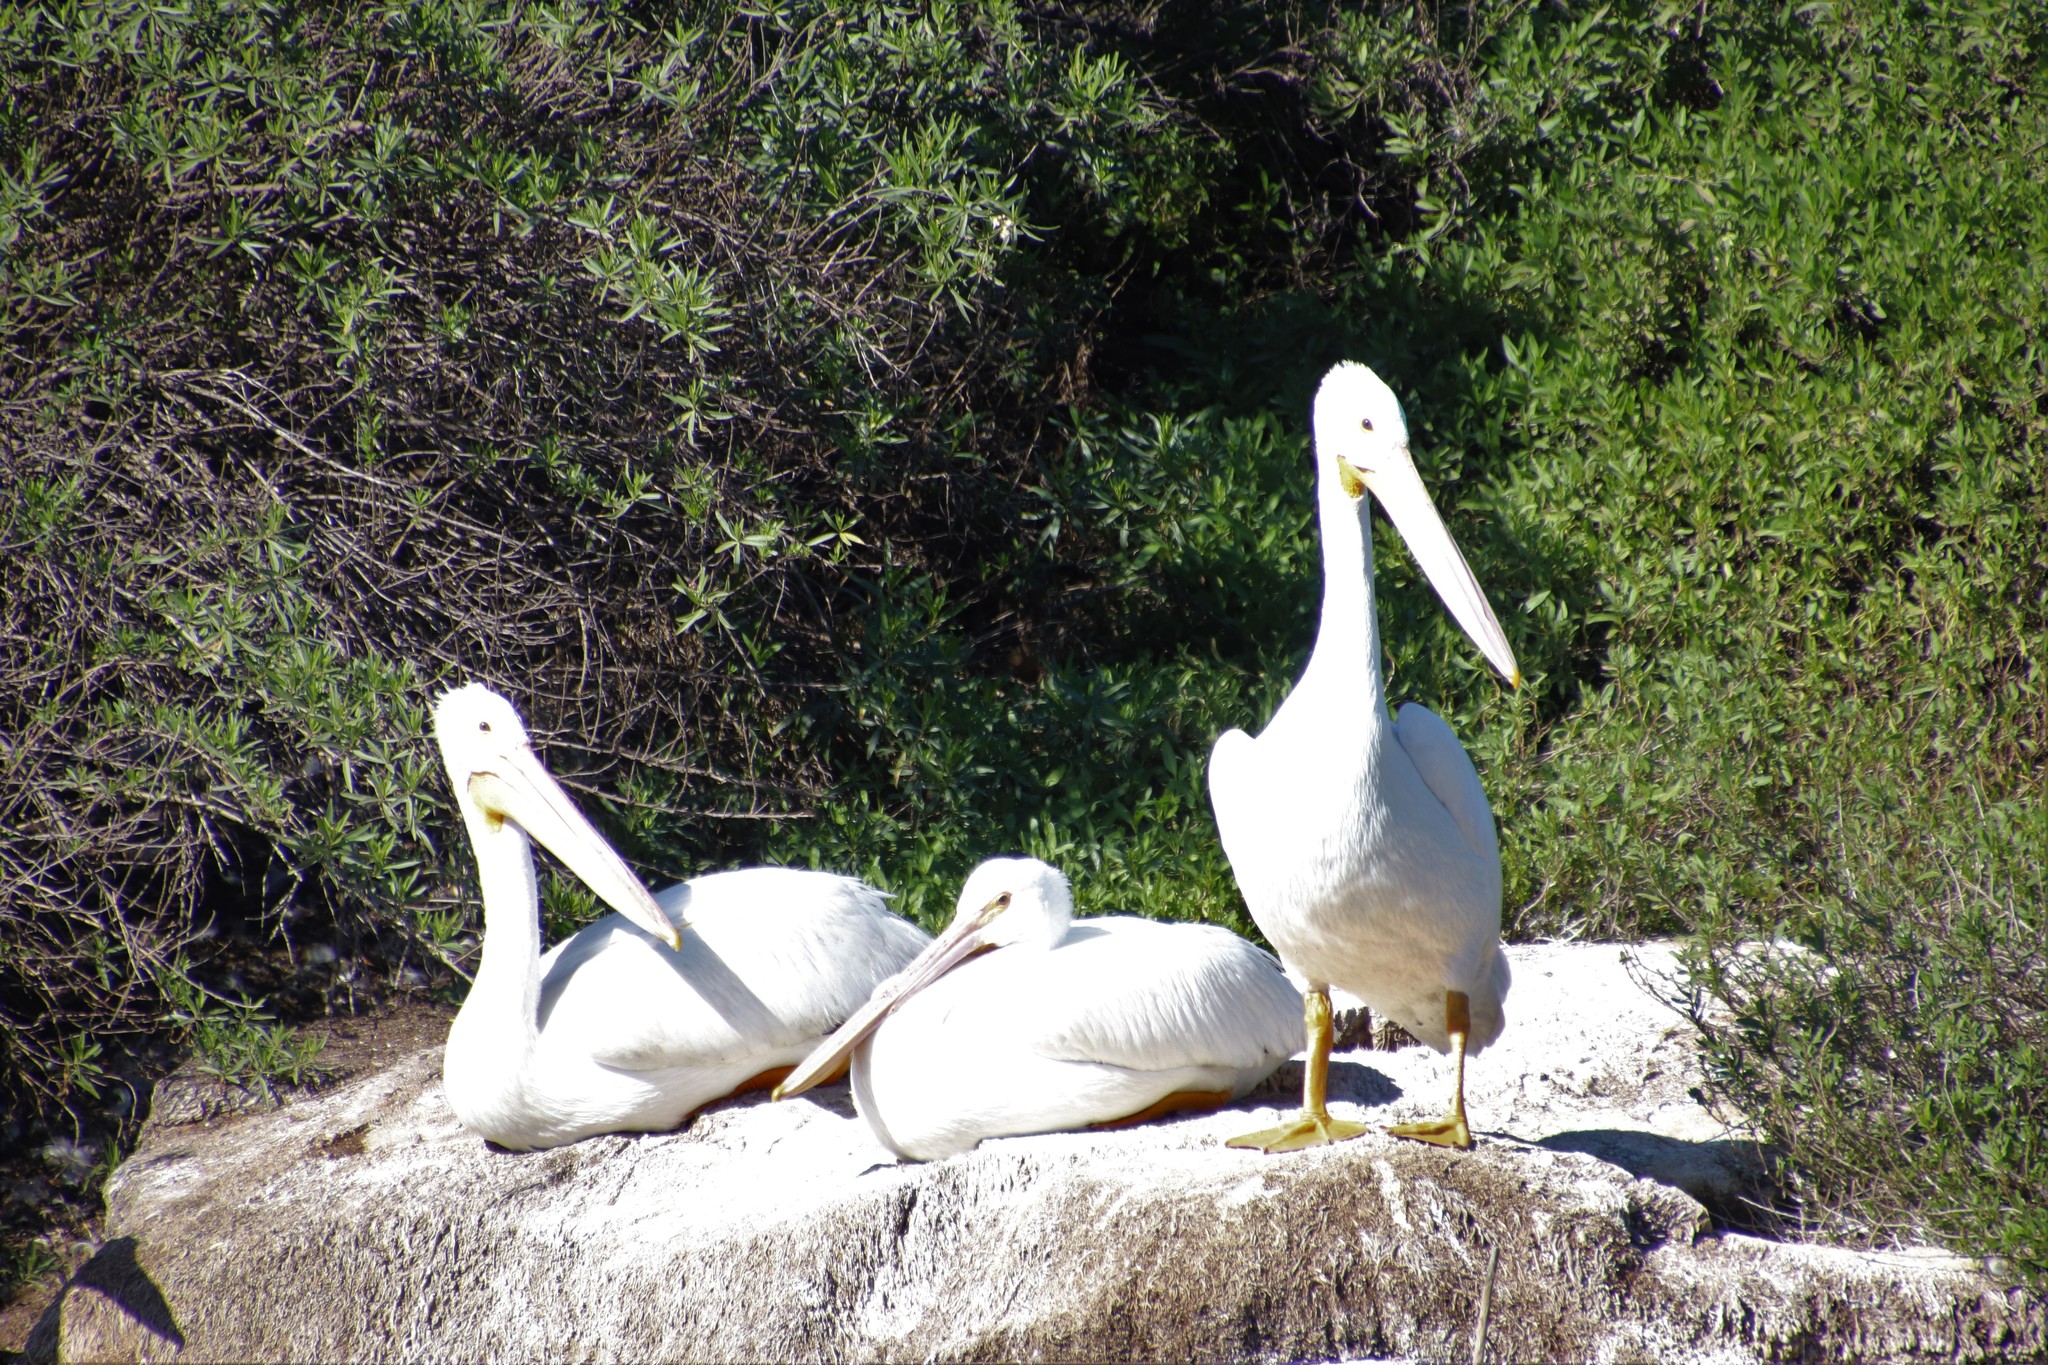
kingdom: Animalia
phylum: Chordata
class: Aves
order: Pelecaniformes
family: Pelecanidae
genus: Pelecanus
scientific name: Pelecanus erythrorhynchos
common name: American white pelican
